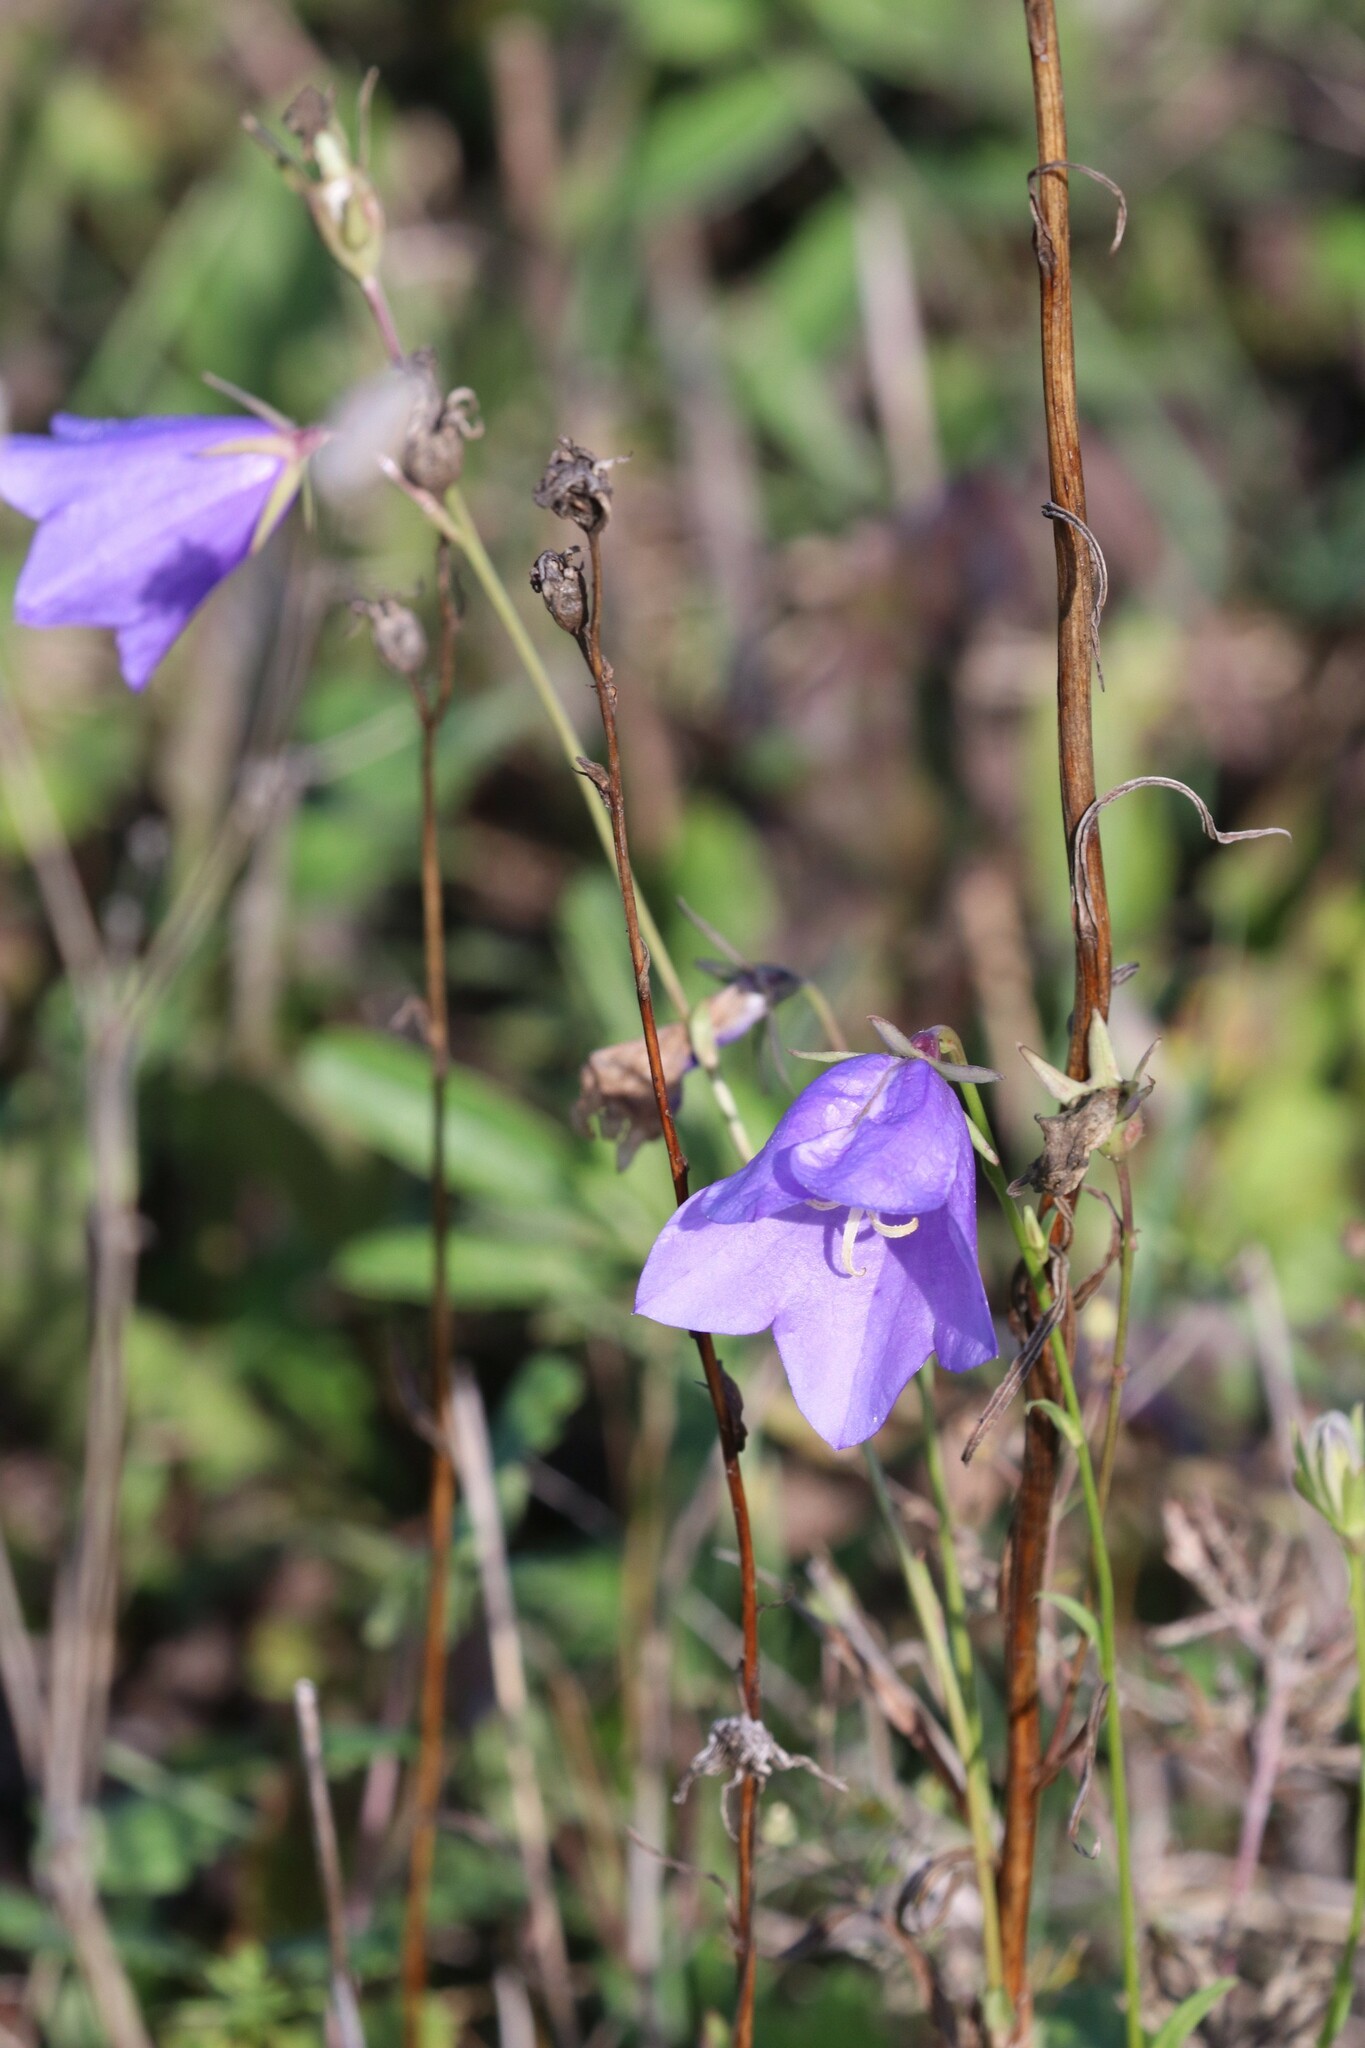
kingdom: Plantae
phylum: Tracheophyta
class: Magnoliopsida
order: Asterales
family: Campanulaceae
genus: Campanula
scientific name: Campanula persicifolia
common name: Peach-leaved bellflower
